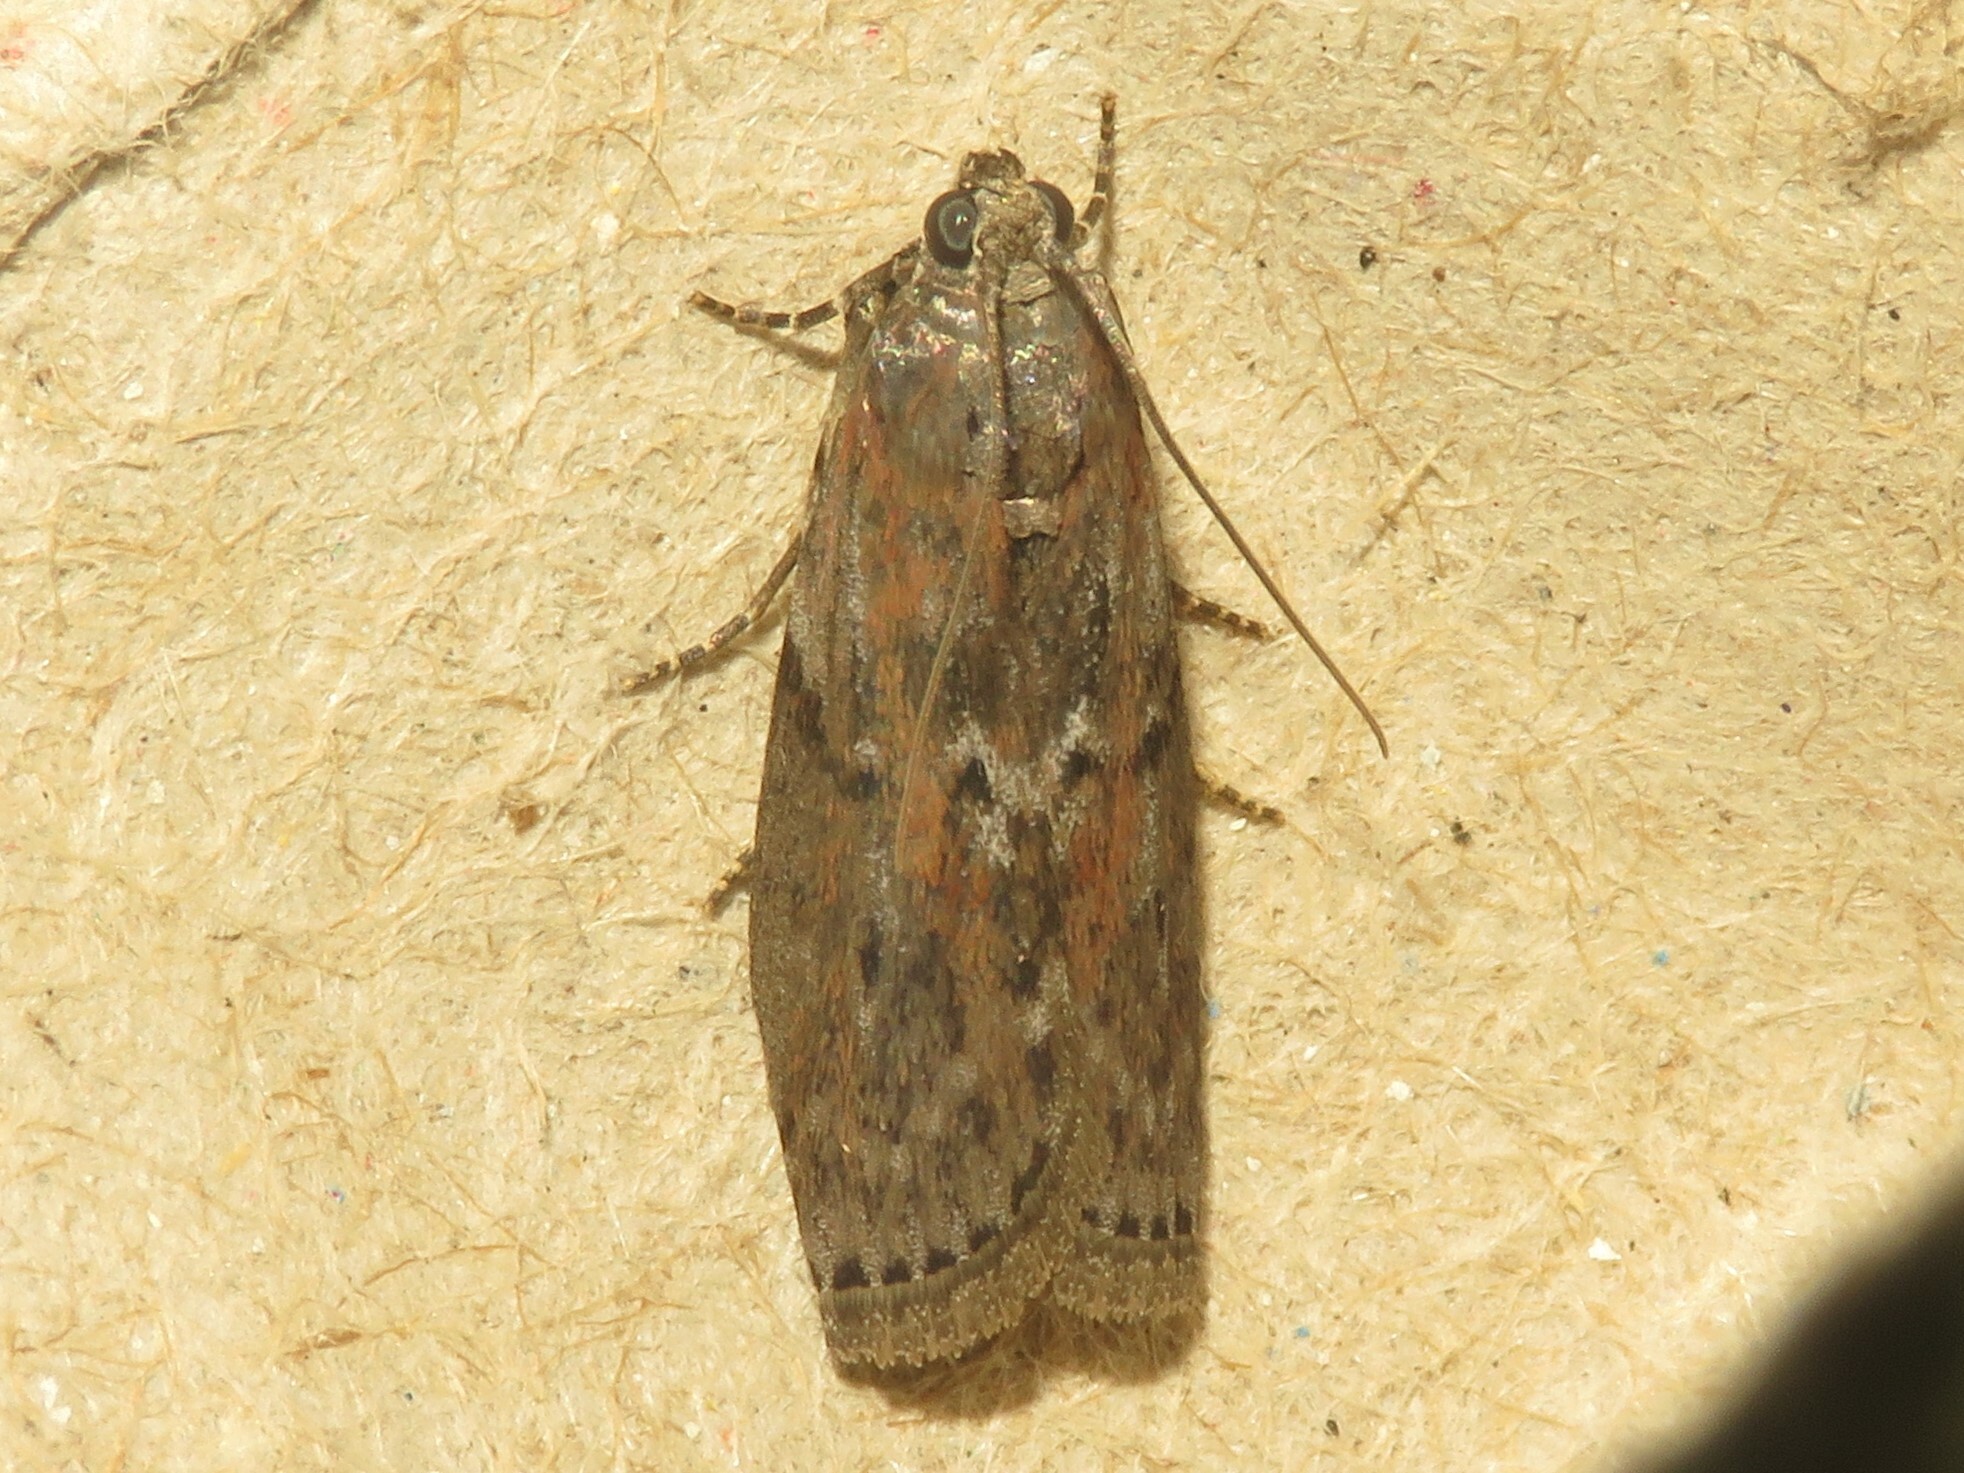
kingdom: Animalia
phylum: Arthropoda
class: Insecta
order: Lepidoptera
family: Pyralidae
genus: Sciota
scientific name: Sciota virgatella
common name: Black-spotted leafroller moth
